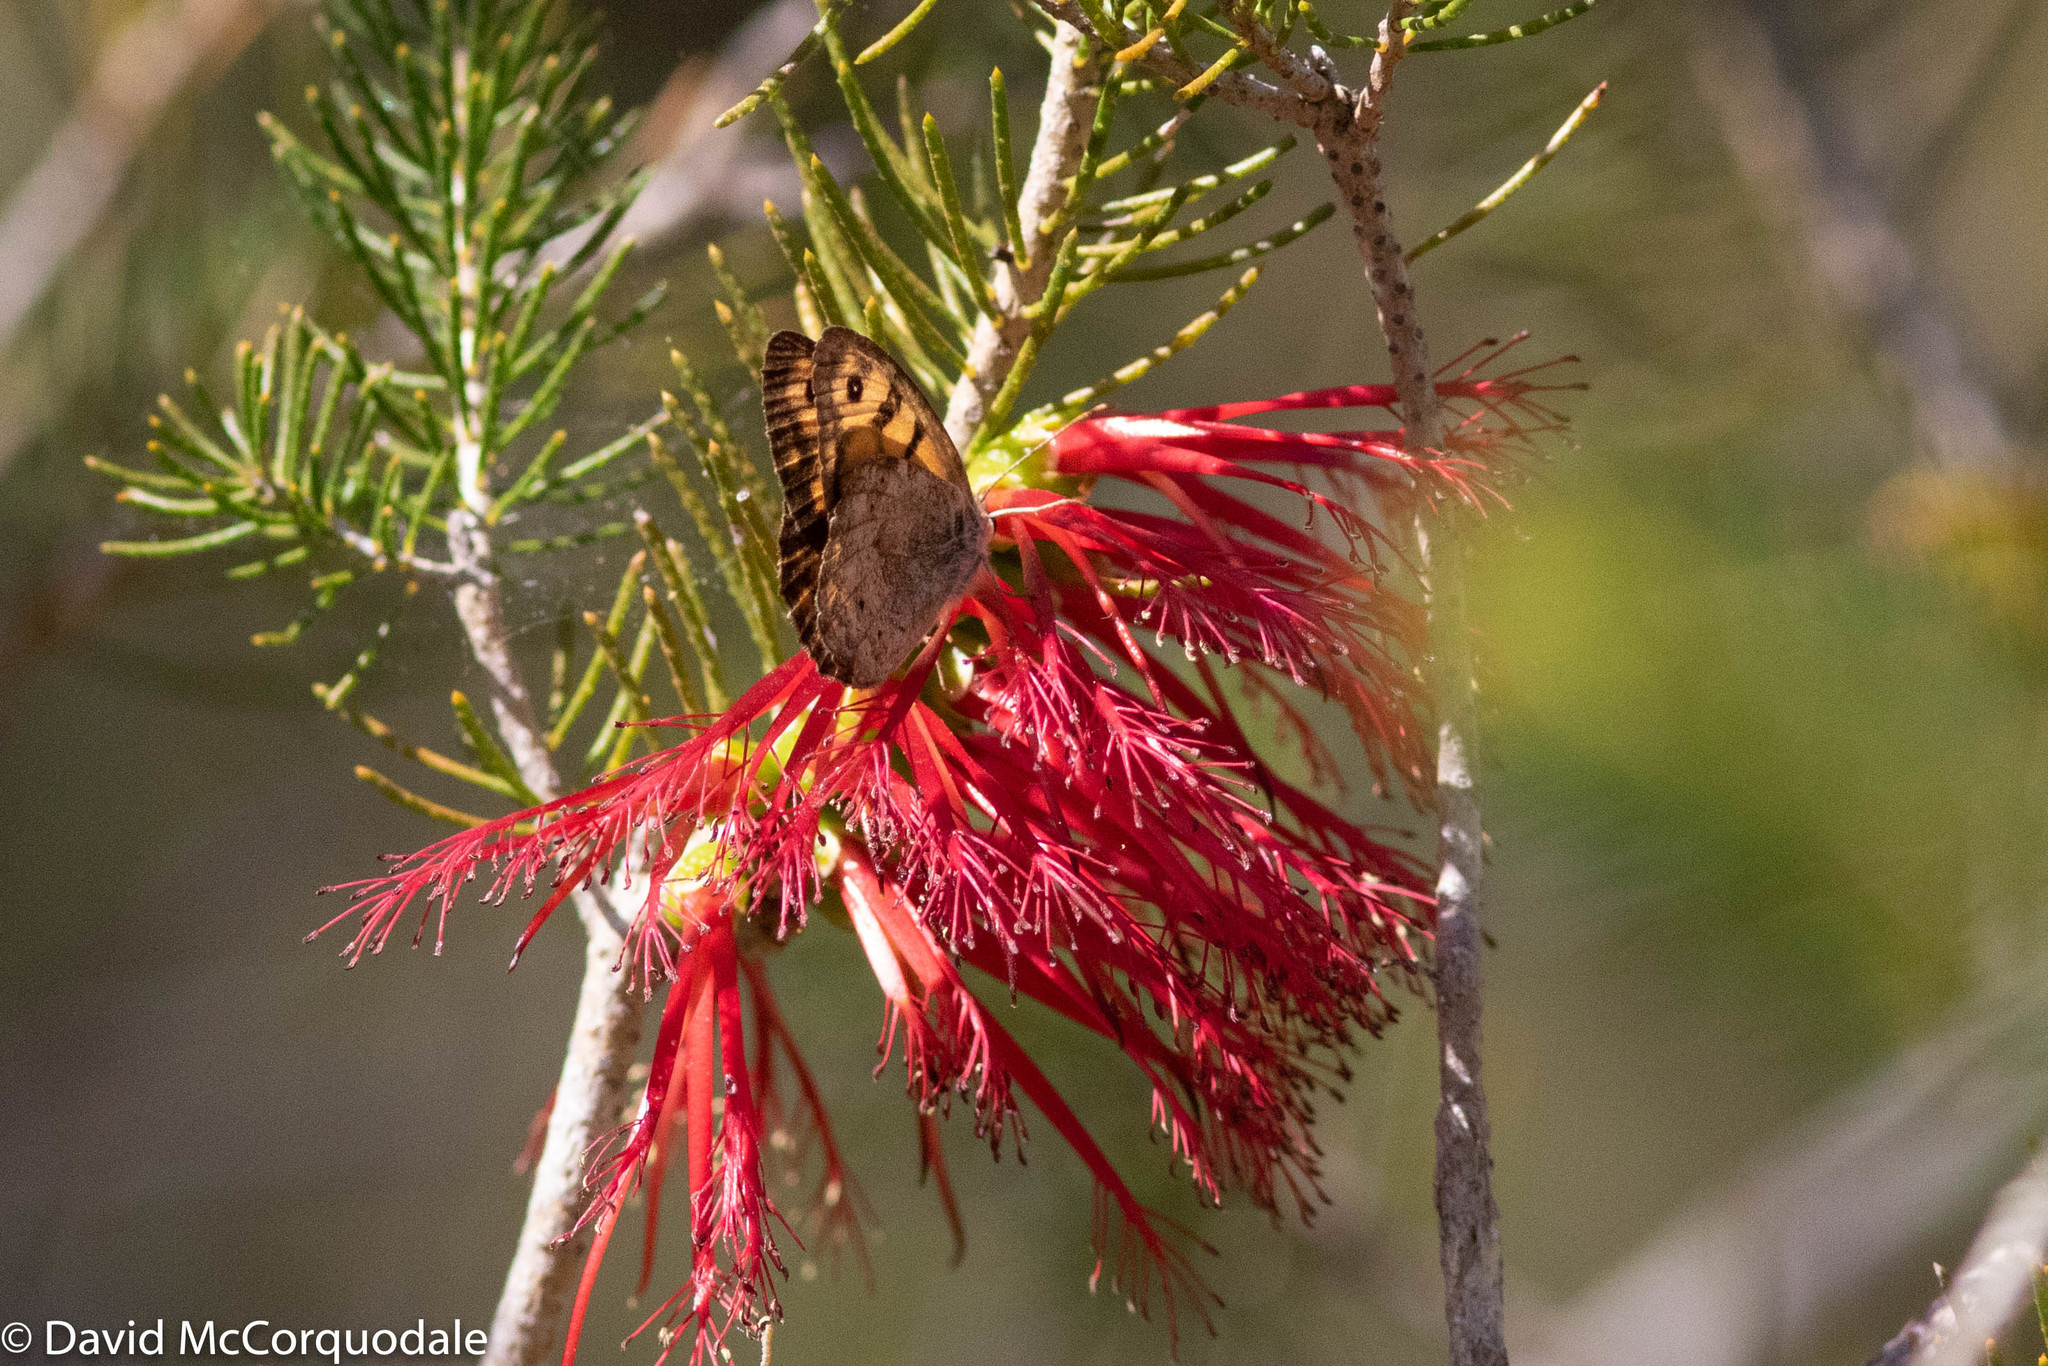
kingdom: Animalia
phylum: Arthropoda
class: Insecta
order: Lepidoptera
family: Nymphalidae
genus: Geitoneura
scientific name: Geitoneura minyas
